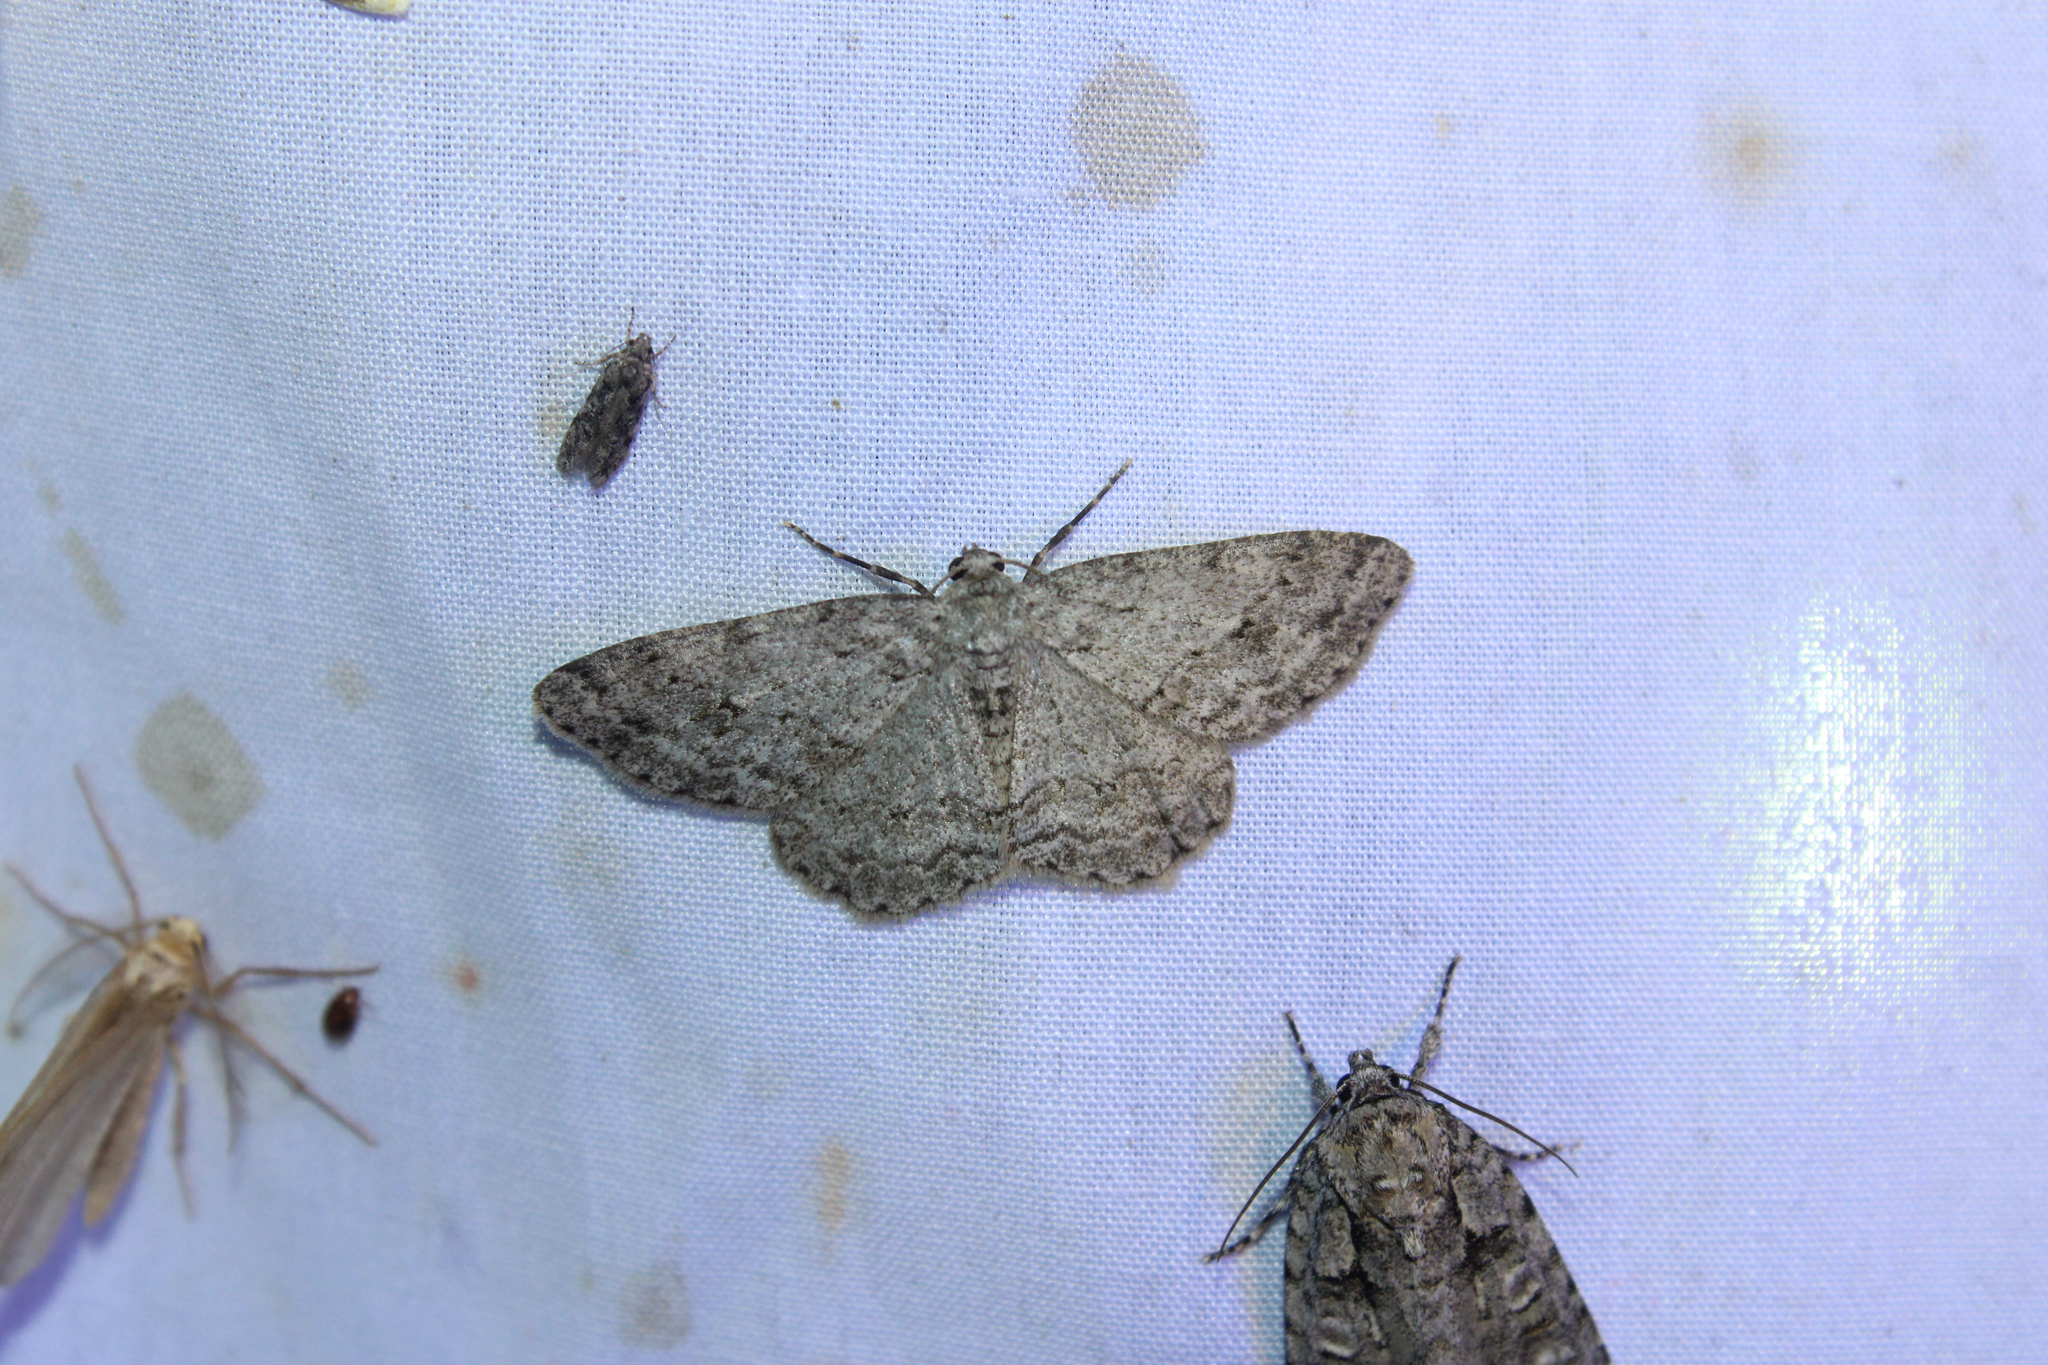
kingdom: Animalia
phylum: Arthropoda
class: Insecta
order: Lepidoptera
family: Geometridae
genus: Ectropis
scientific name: Ectropis crepuscularia
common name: Engrailed
